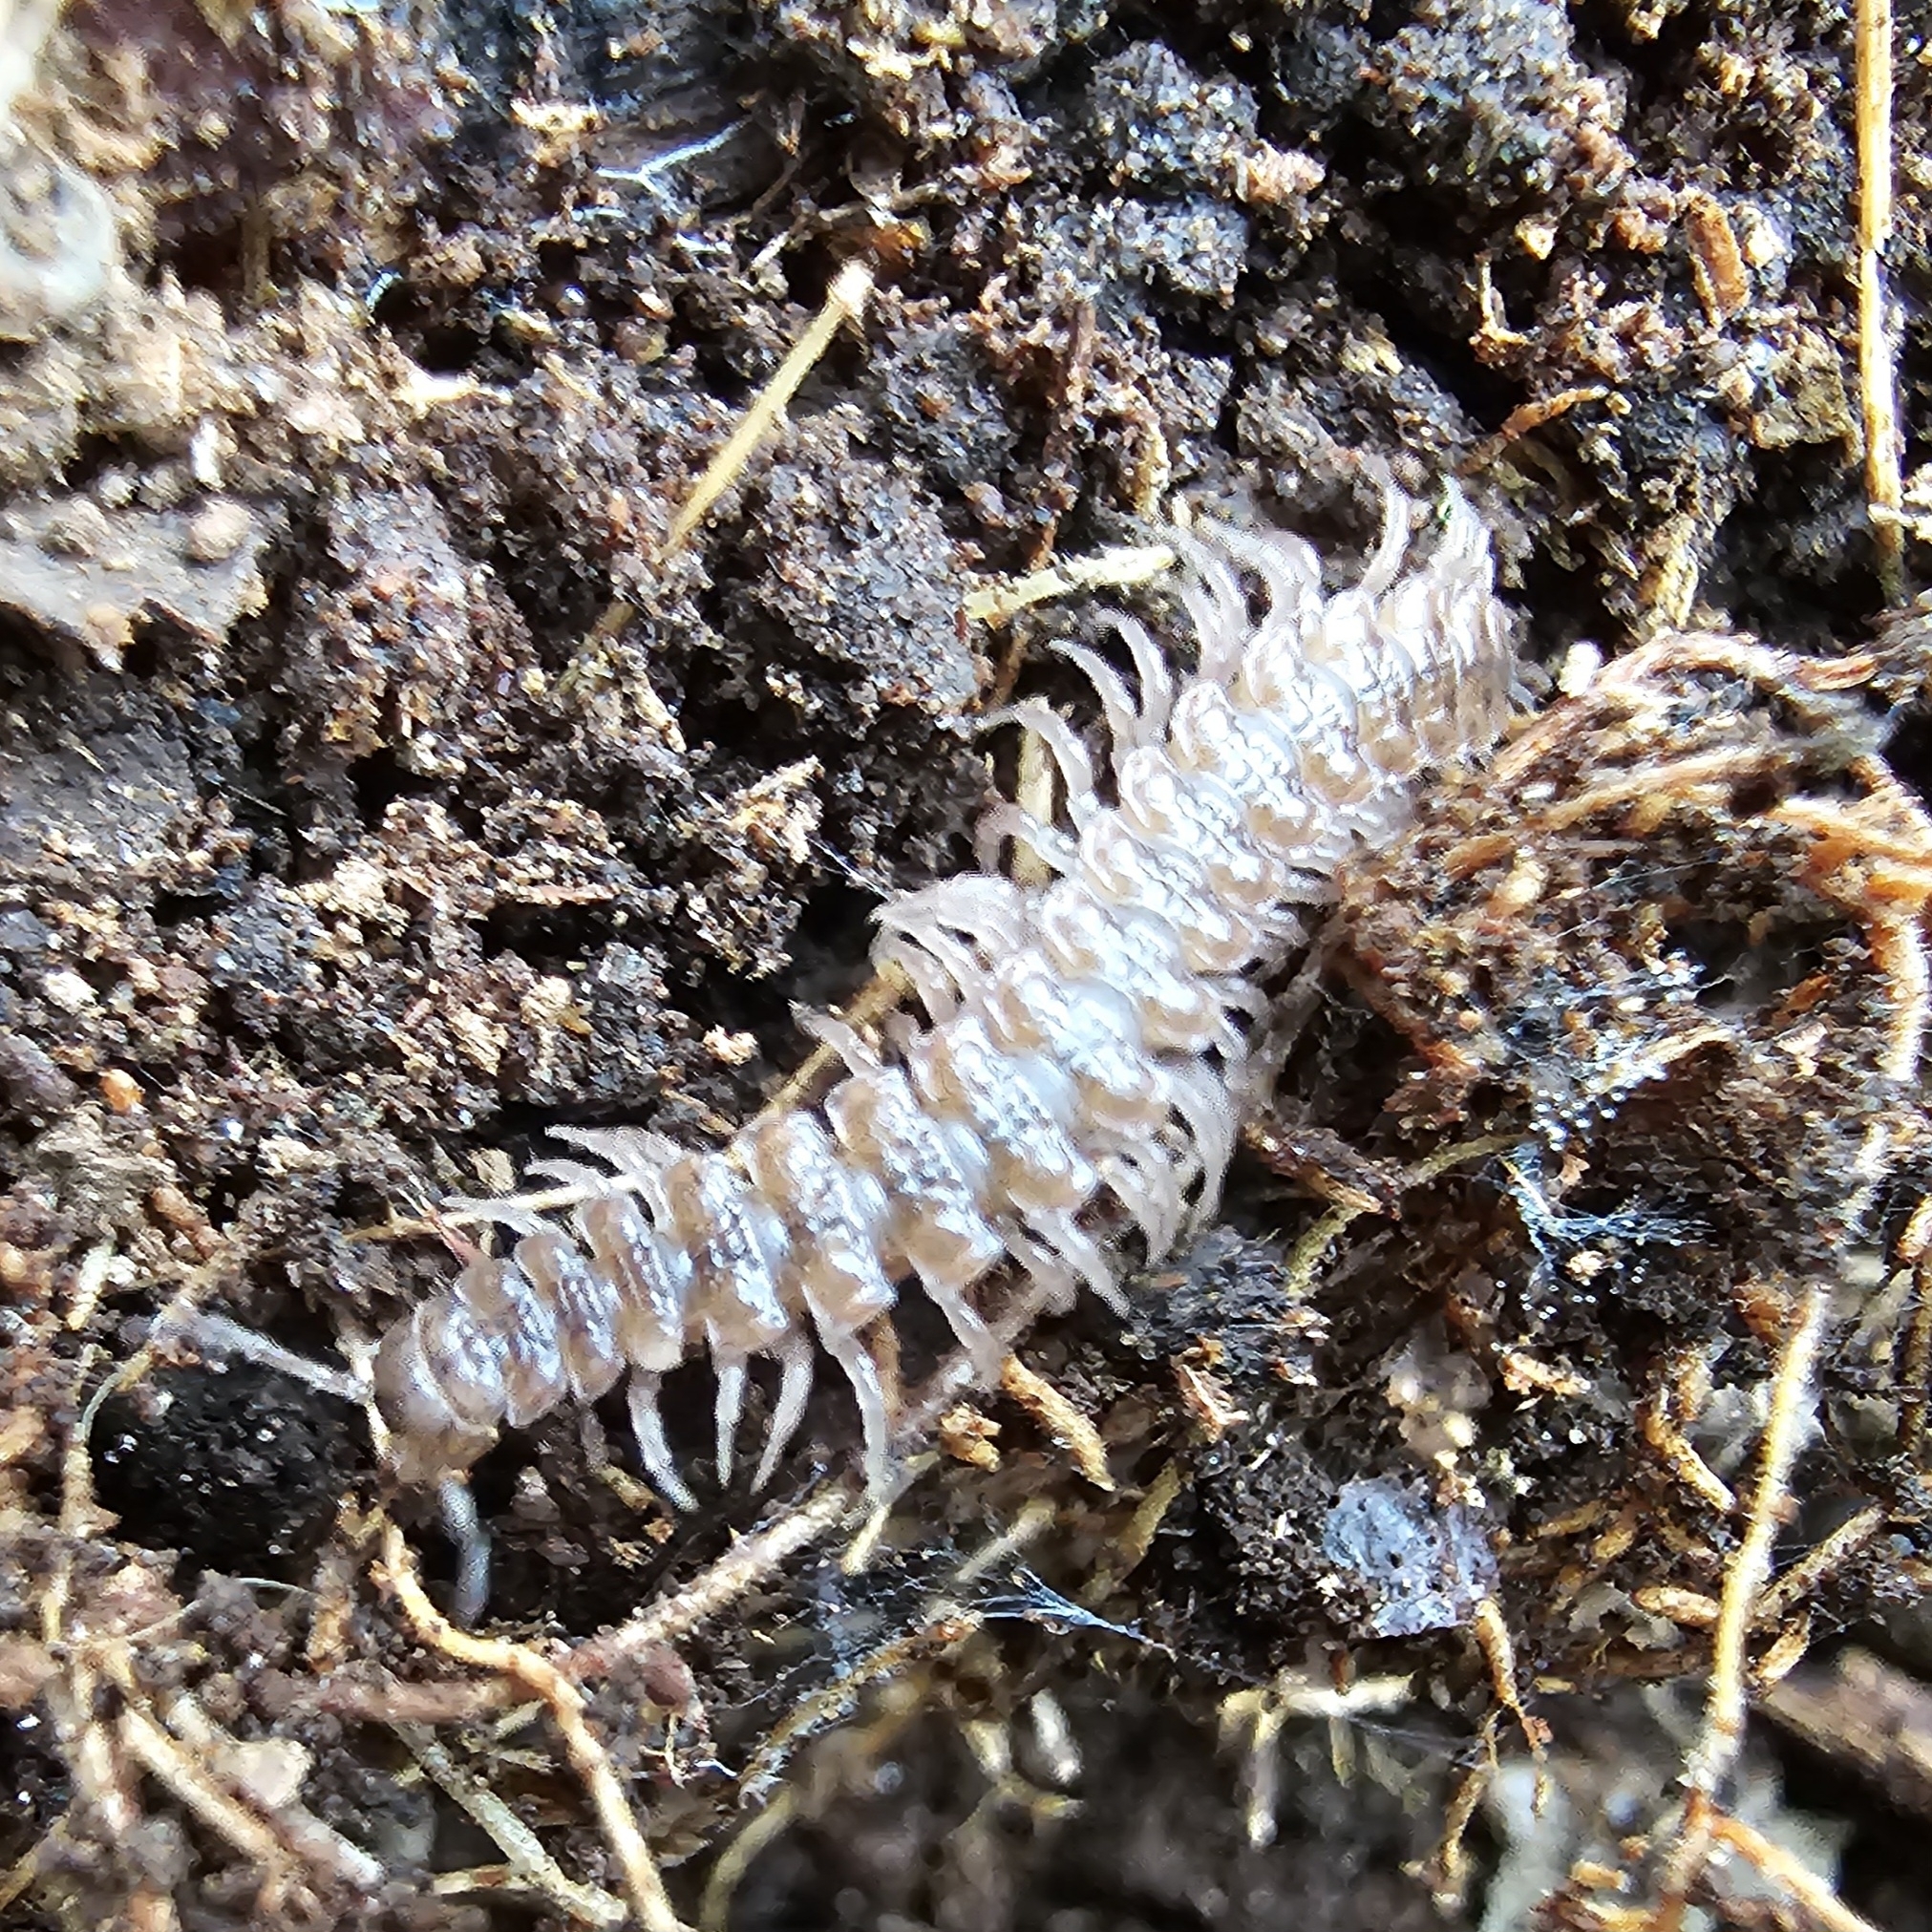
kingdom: Animalia
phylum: Arthropoda
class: Diplopoda
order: Polydesmida
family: Polydesmidae
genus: Polydesmus
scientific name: Polydesmus angustus
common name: Flat millipede
